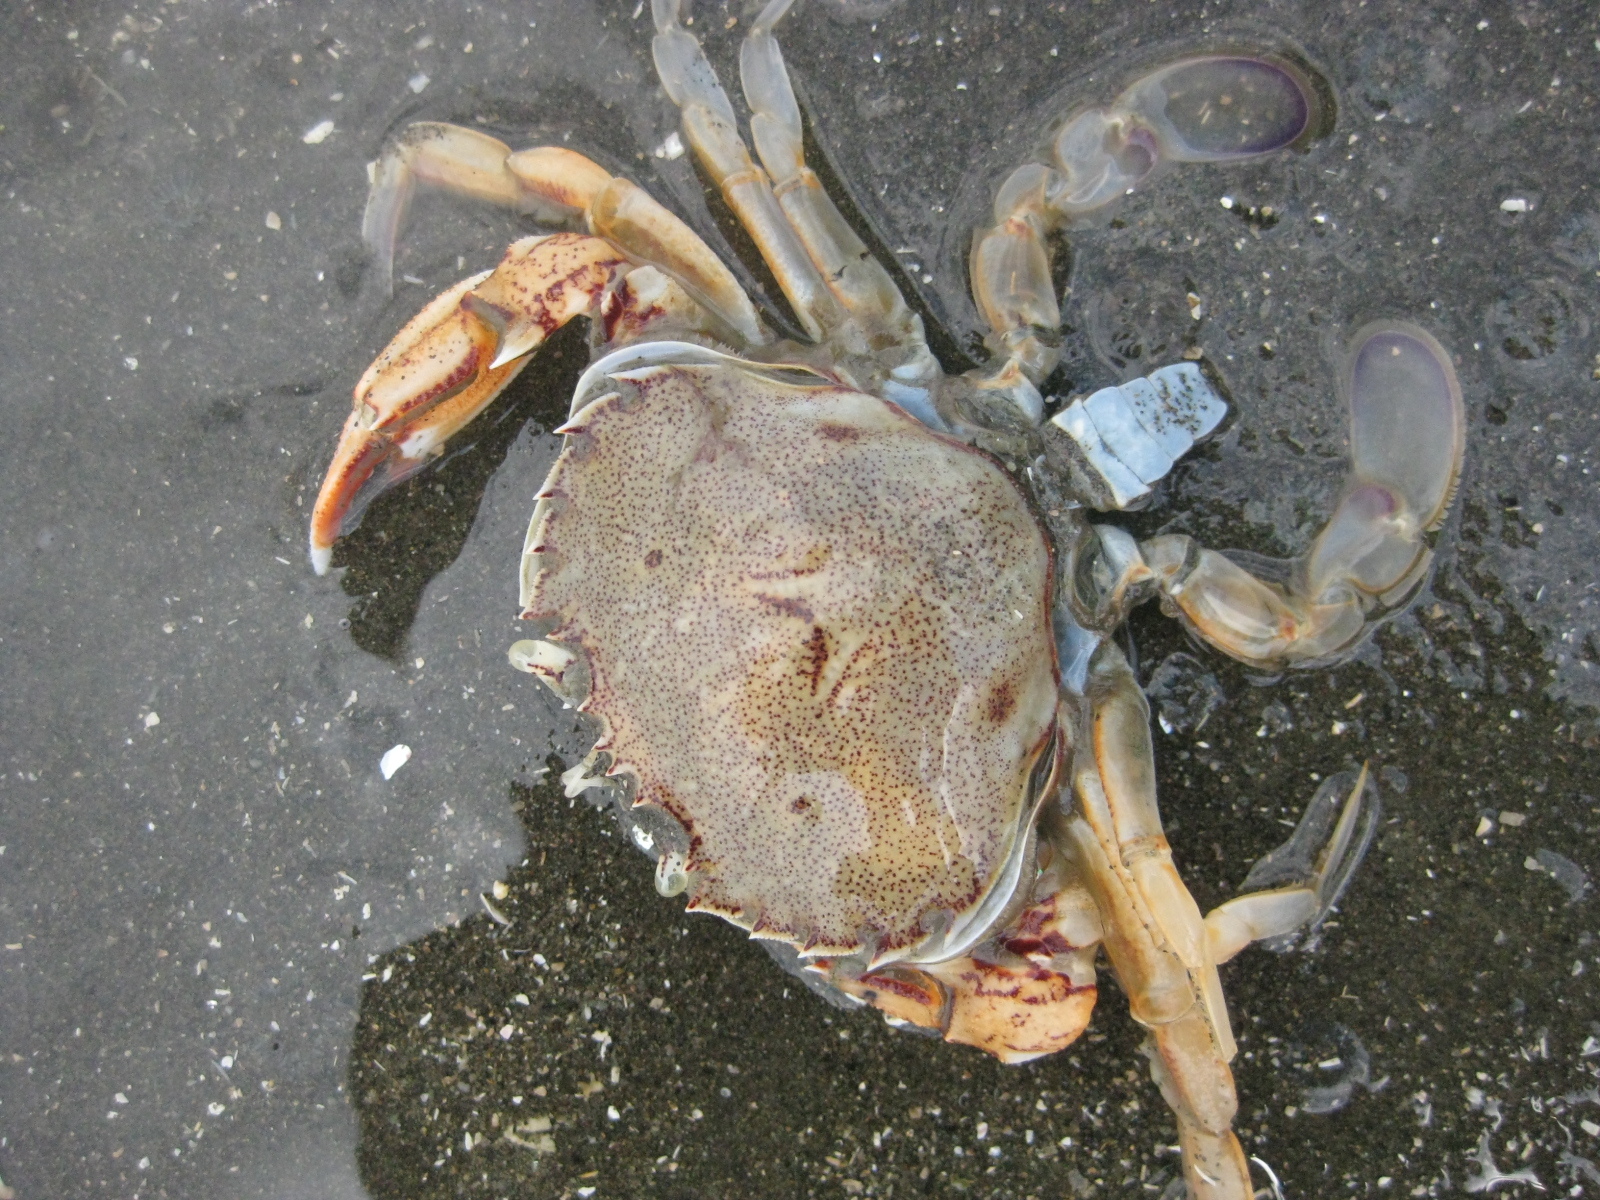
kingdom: Animalia
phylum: Arthropoda
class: Malacostraca
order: Decapoda
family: Ovalipidae
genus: Ovalipes
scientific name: Ovalipes catharus
